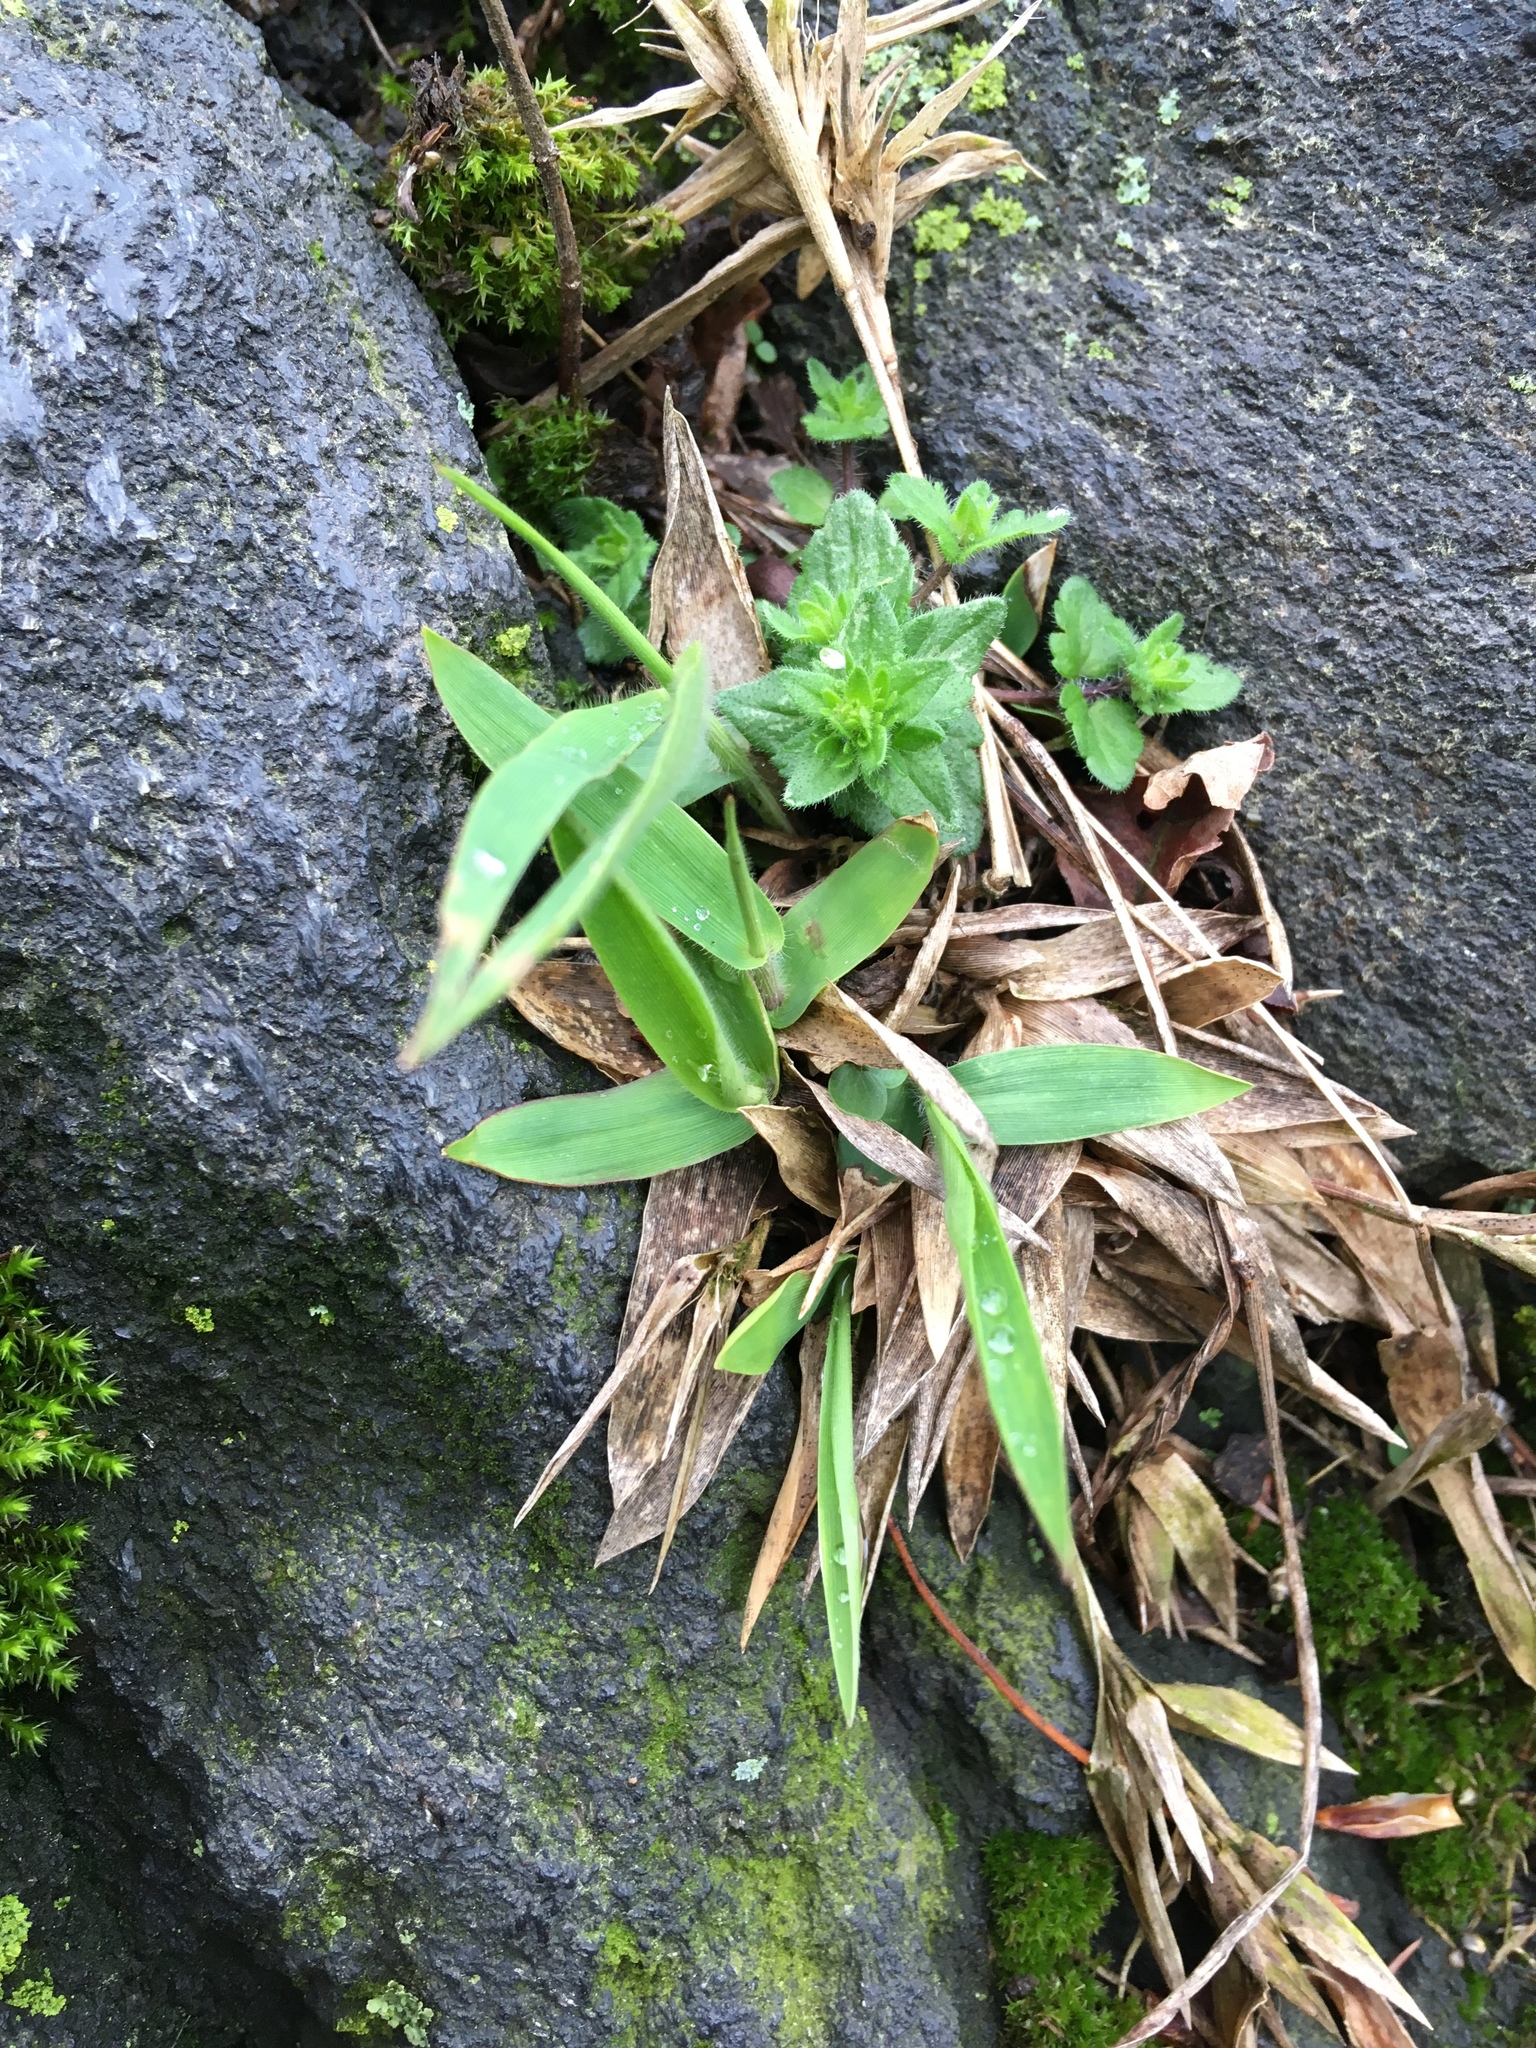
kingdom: Plantae
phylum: Tracheophyta
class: Liliopsida
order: Poales
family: Poaceae
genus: Dichanthelium
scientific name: Dichanthelium clandestinum
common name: Deer-tongue grass
